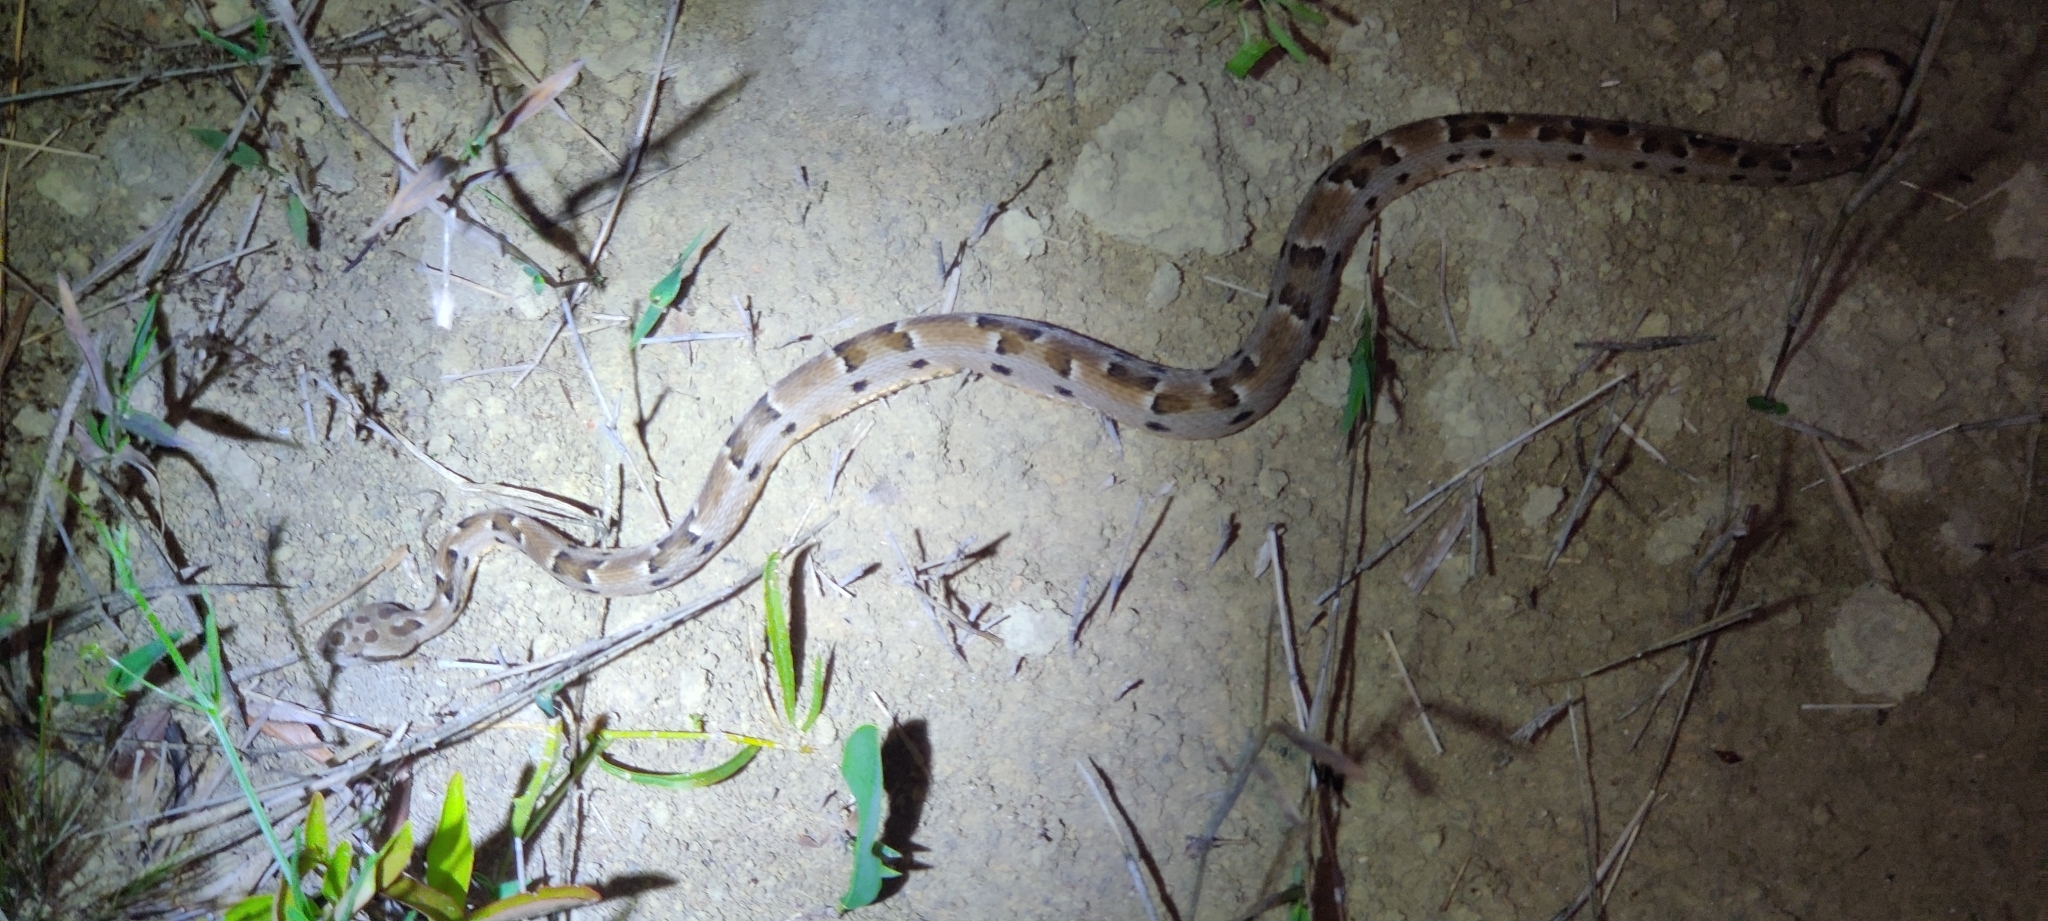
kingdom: Animalia
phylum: Chordata
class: Squamata
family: Viperidae
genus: Bothrops
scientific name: Bothrops pauloensis
